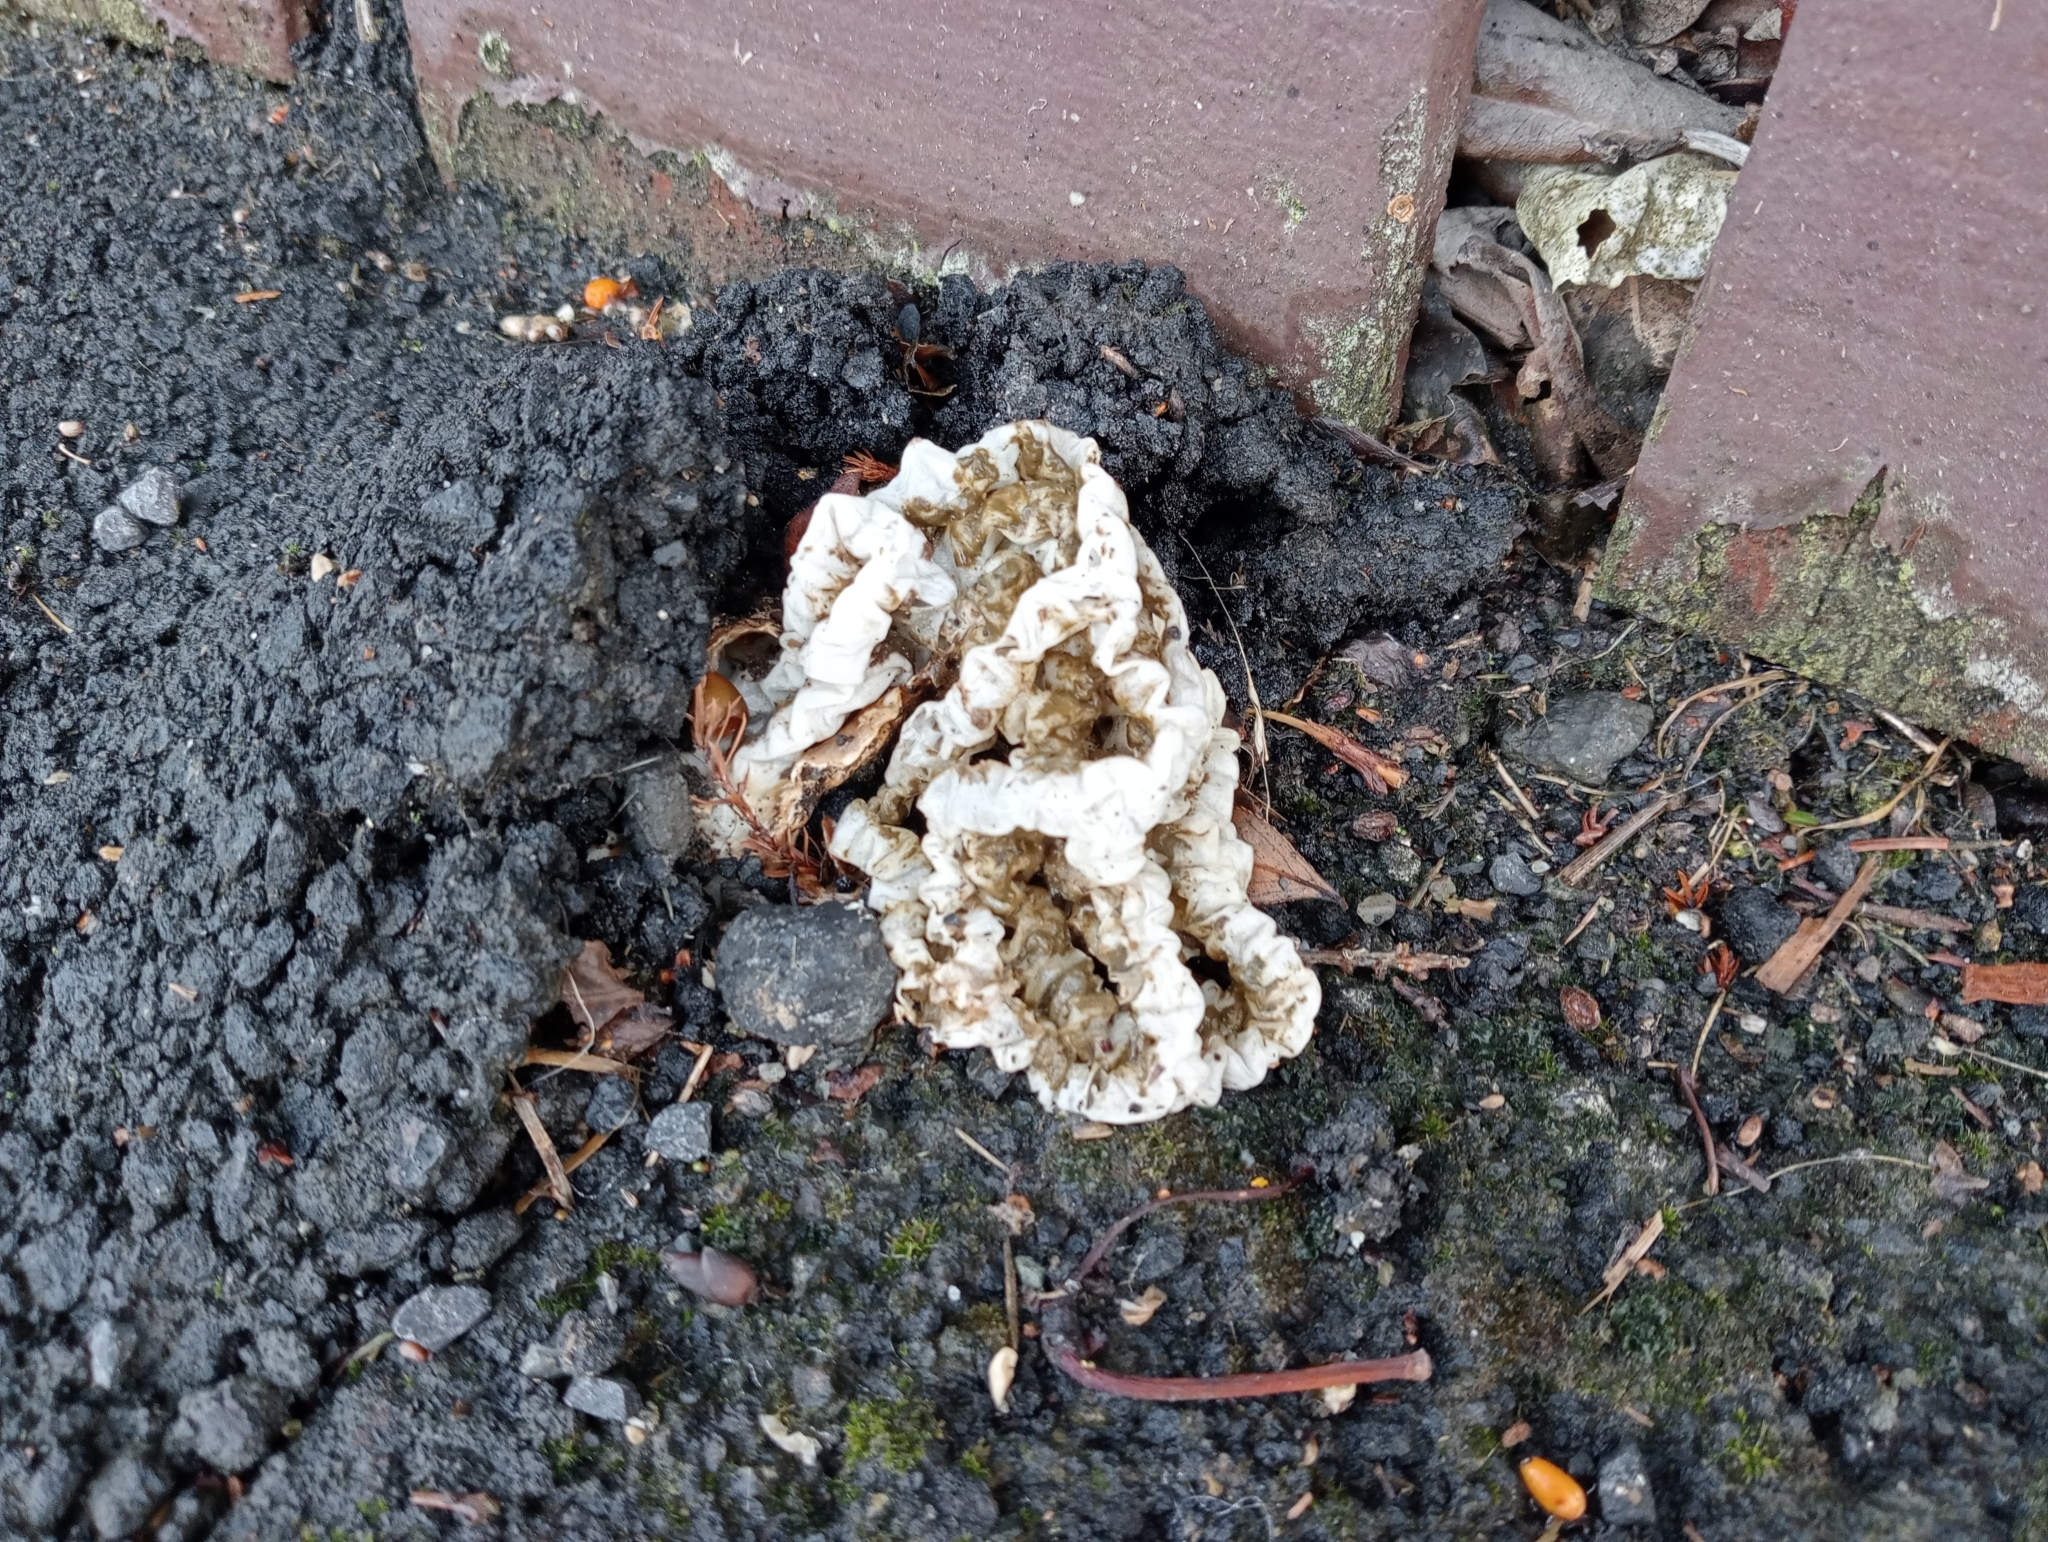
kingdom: Fungi
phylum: Basidiomycota
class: Agaricomycetes
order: Phallales
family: Phallaceae
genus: Ileodictyon
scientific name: Ileodictyon cibarium
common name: Basket fungus
